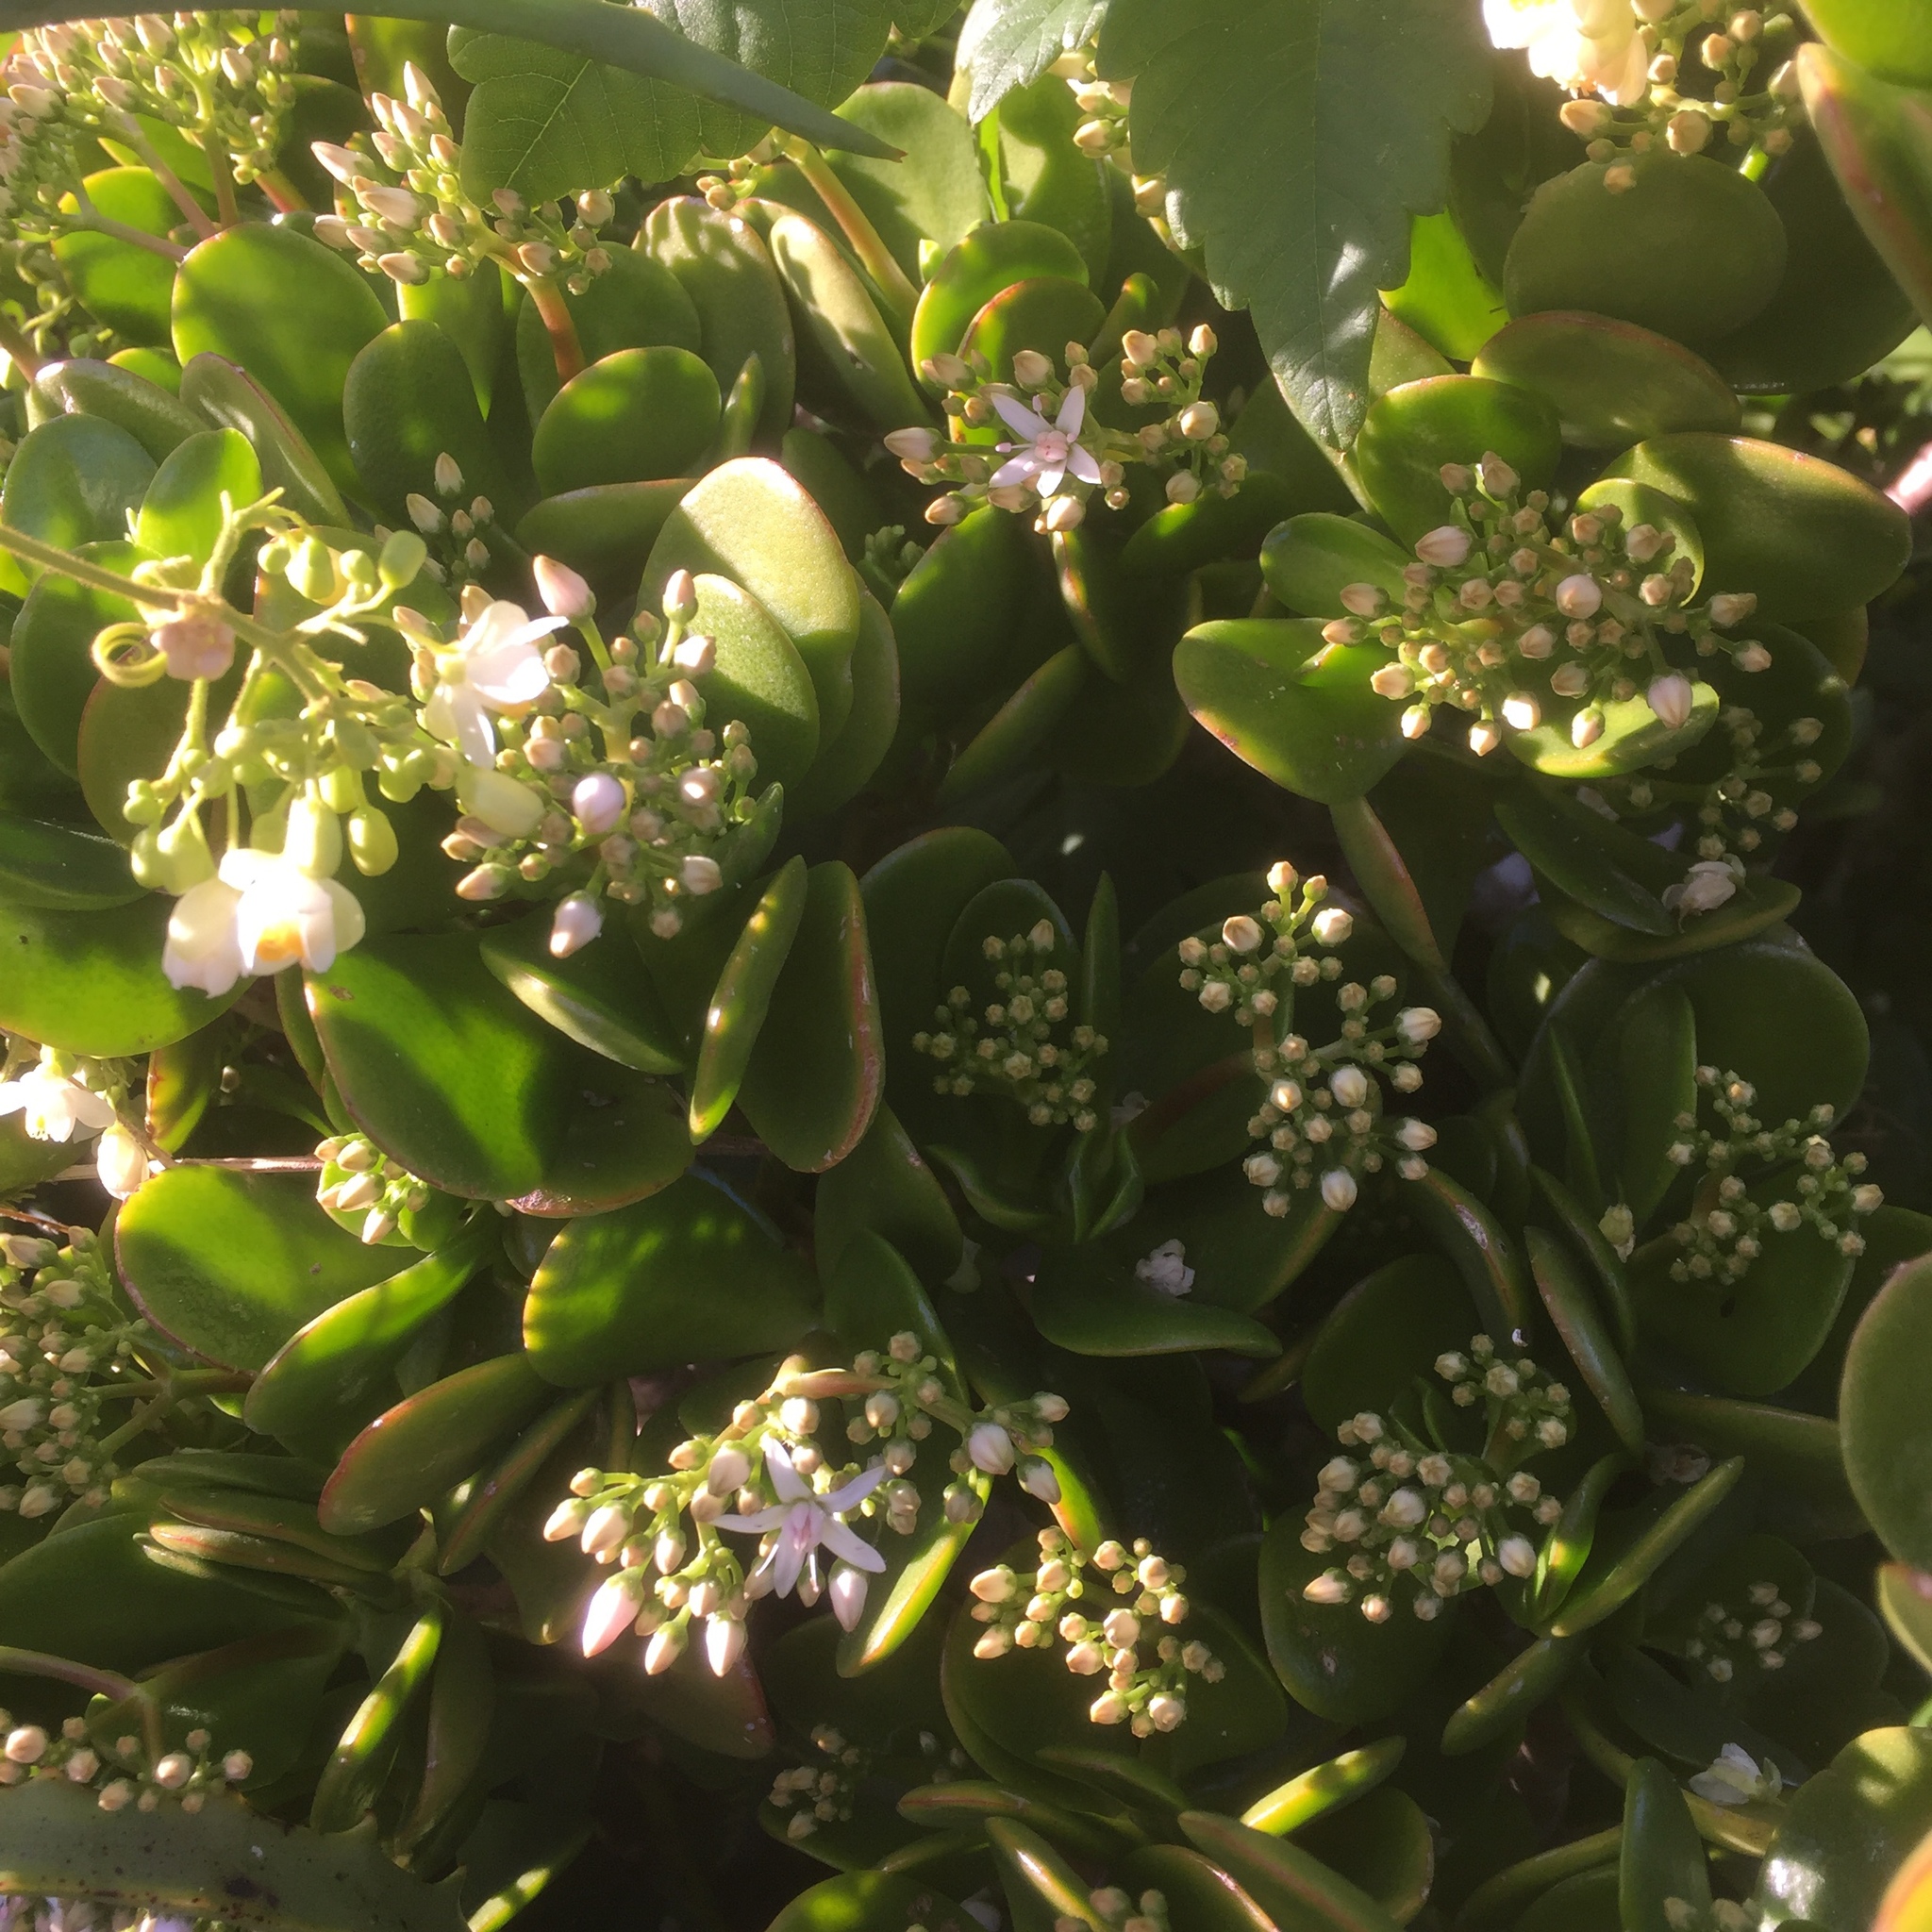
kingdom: Plantae
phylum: Tracheophyta
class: Magnoliopsida
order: Saxifragales
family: Crassulaceae
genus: Crassula
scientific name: Crassula ovata
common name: Jade plant
